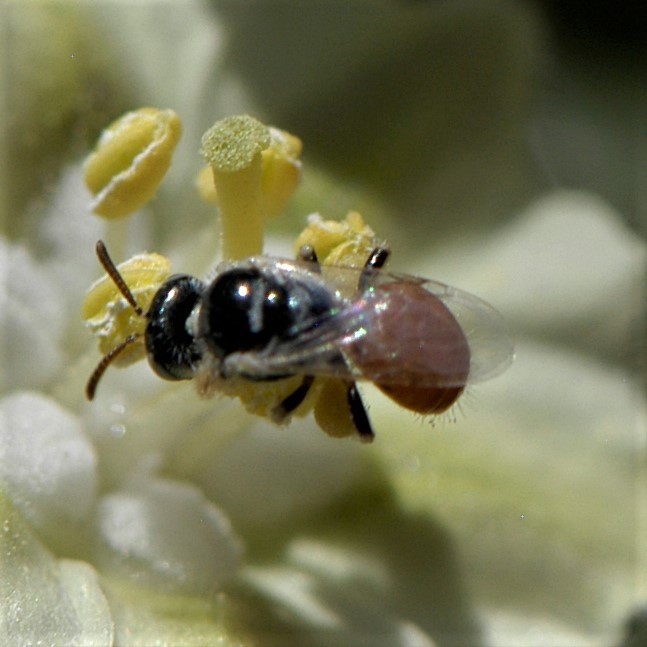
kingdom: Animalia
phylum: Arthropoda
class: Insecta
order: Hymenoptera
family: Andrenidae
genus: Perdita
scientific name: Perdita chamaesarachae
